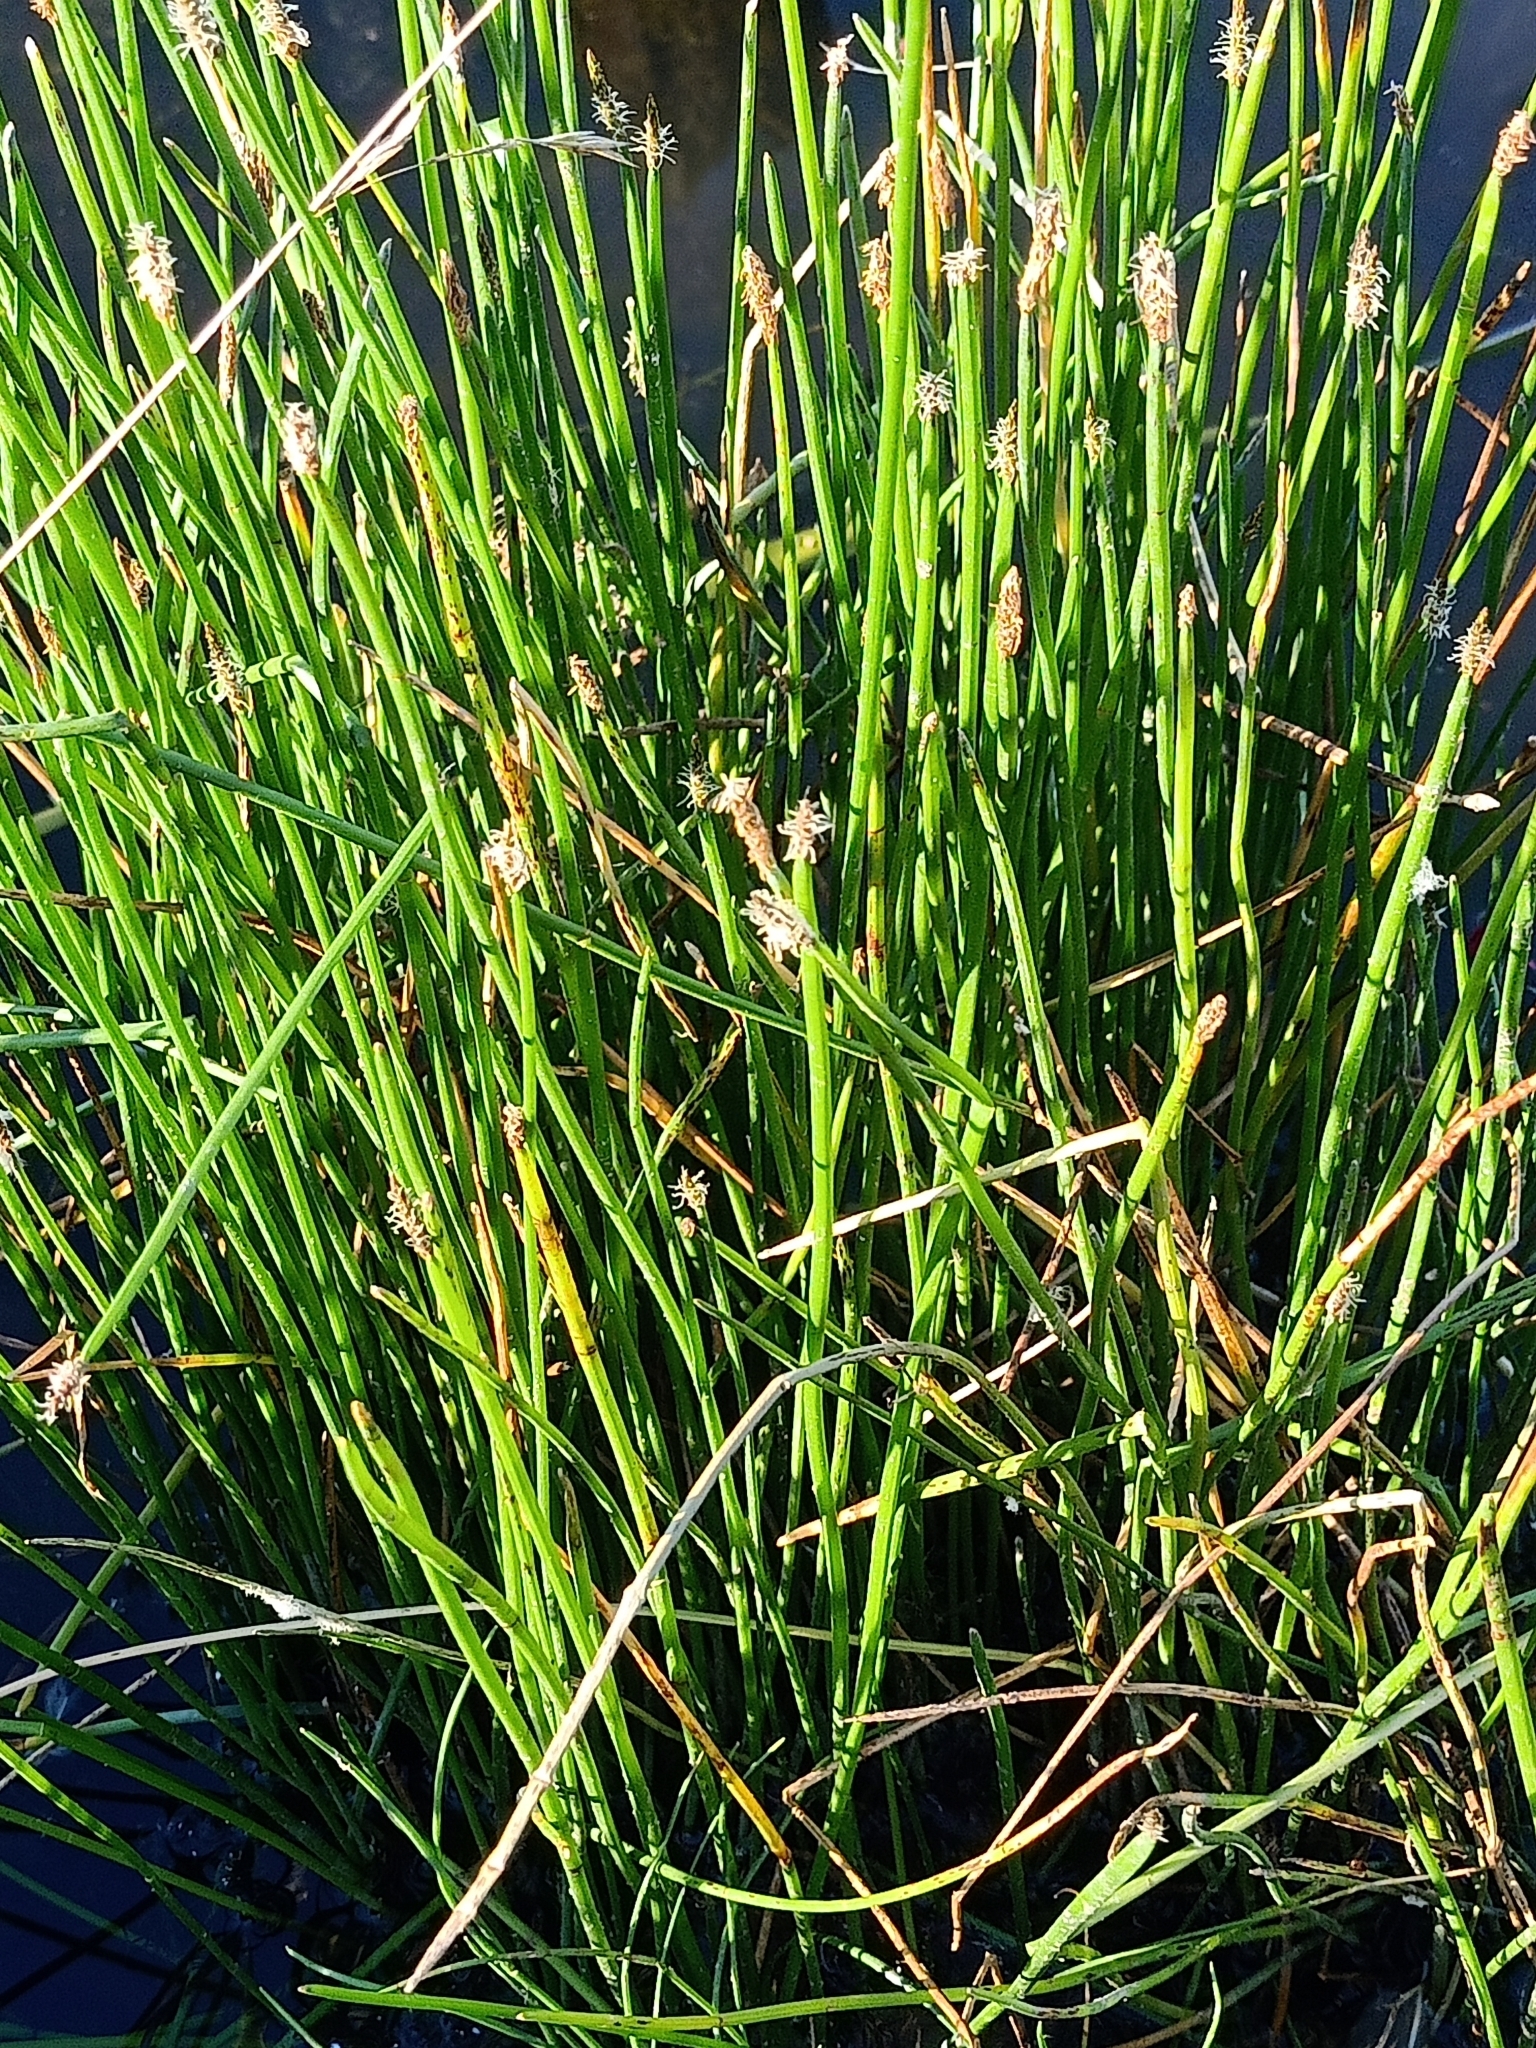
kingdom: Plantae
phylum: Tracheophyta
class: Liliopsida
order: Poales
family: Cyperaceae
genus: Eleocharis
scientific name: Eleocharis palustris
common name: Common spike-rush
